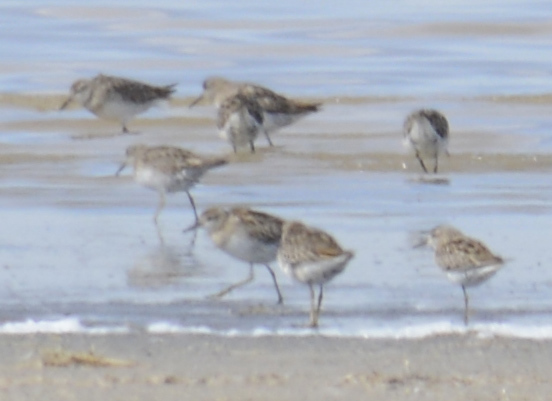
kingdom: Animalia
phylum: Chordata
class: Aves
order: Charadriiformes
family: Scolopacidae
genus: Calidris
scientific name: Calidris acuminata
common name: Sharp-tailed sandpiper
